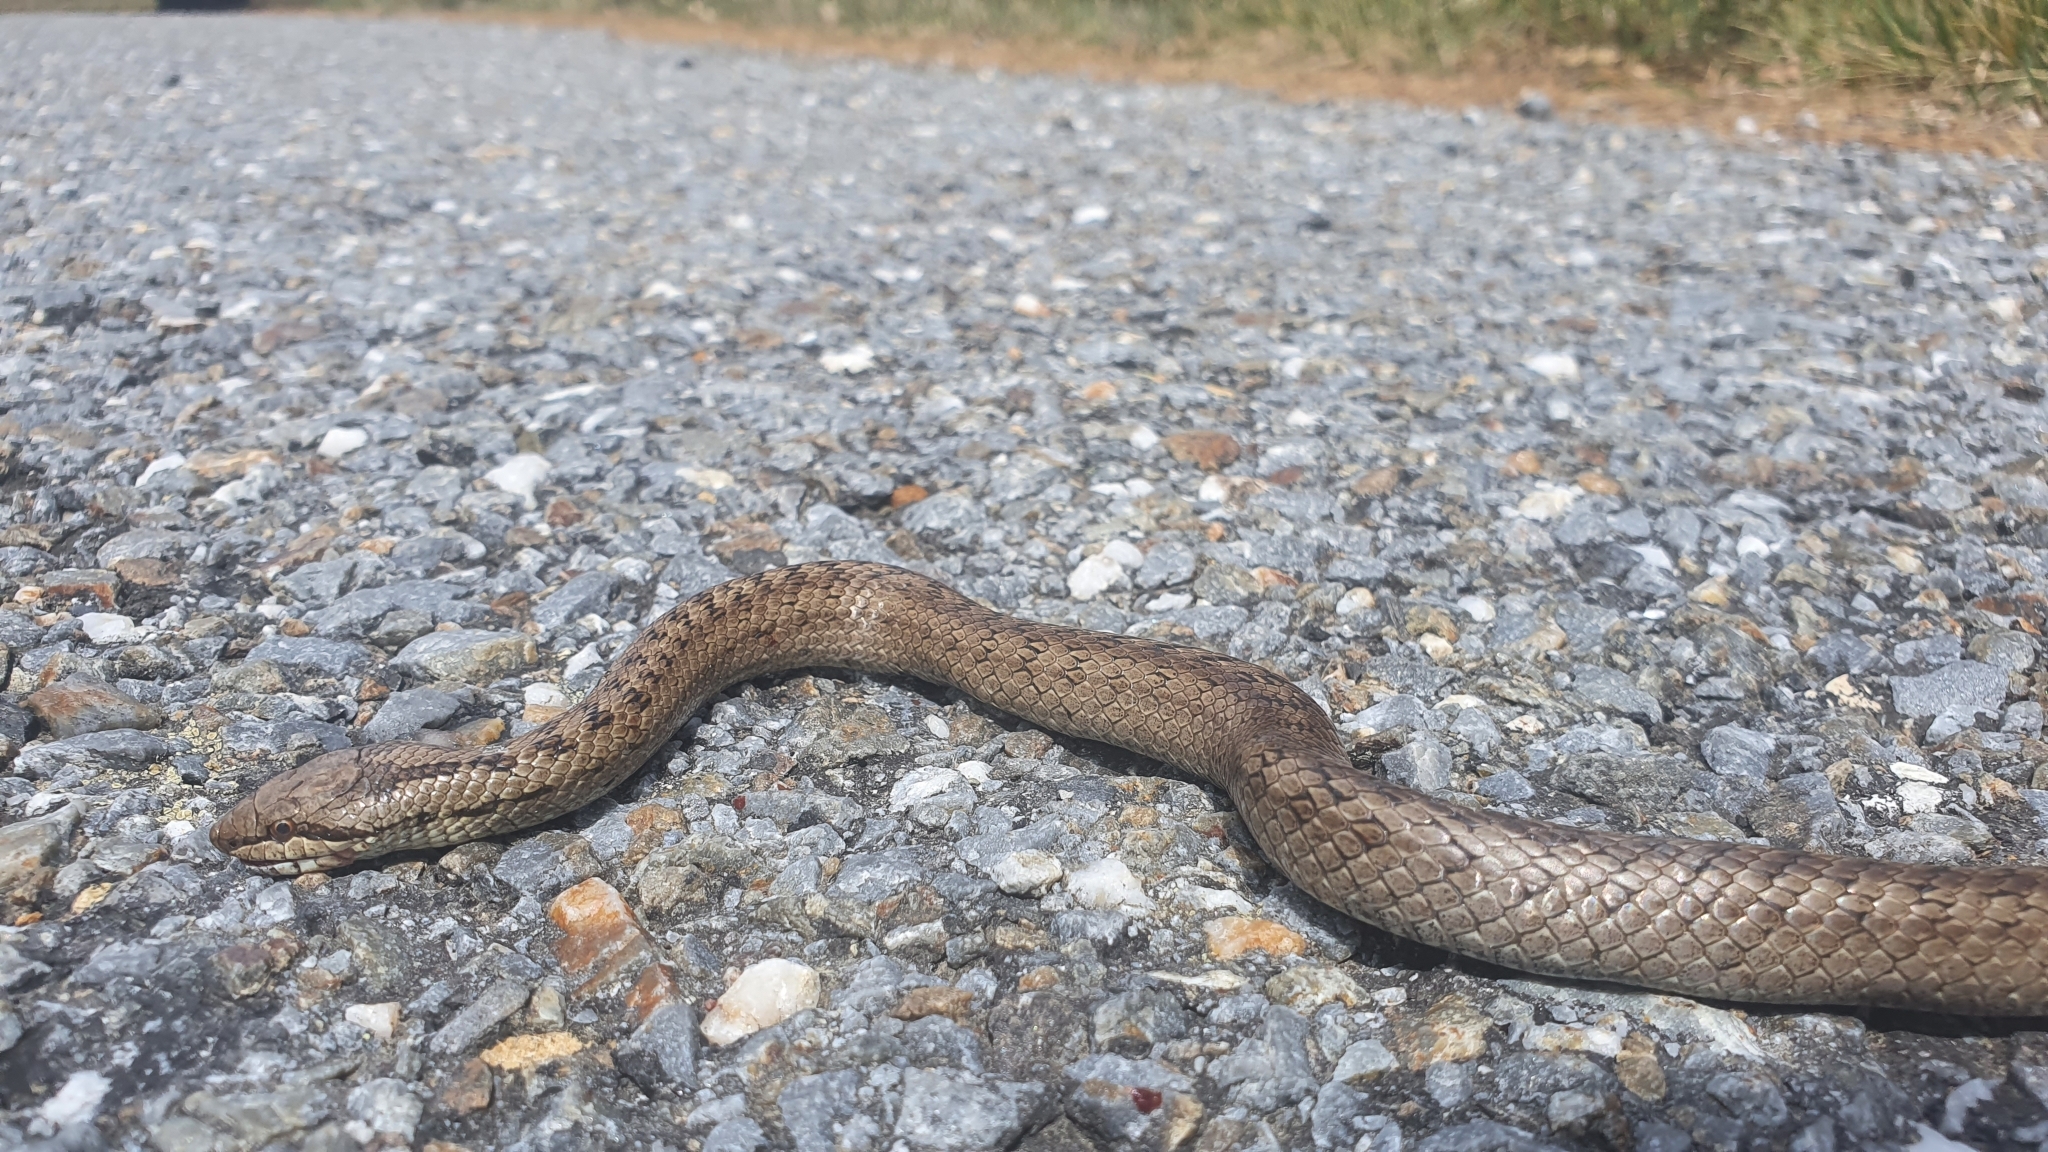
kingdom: Animalia
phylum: Chordata
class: Squamata
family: Colubridae
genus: Coronella
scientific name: Coronella austriaca
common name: Smooth snake
